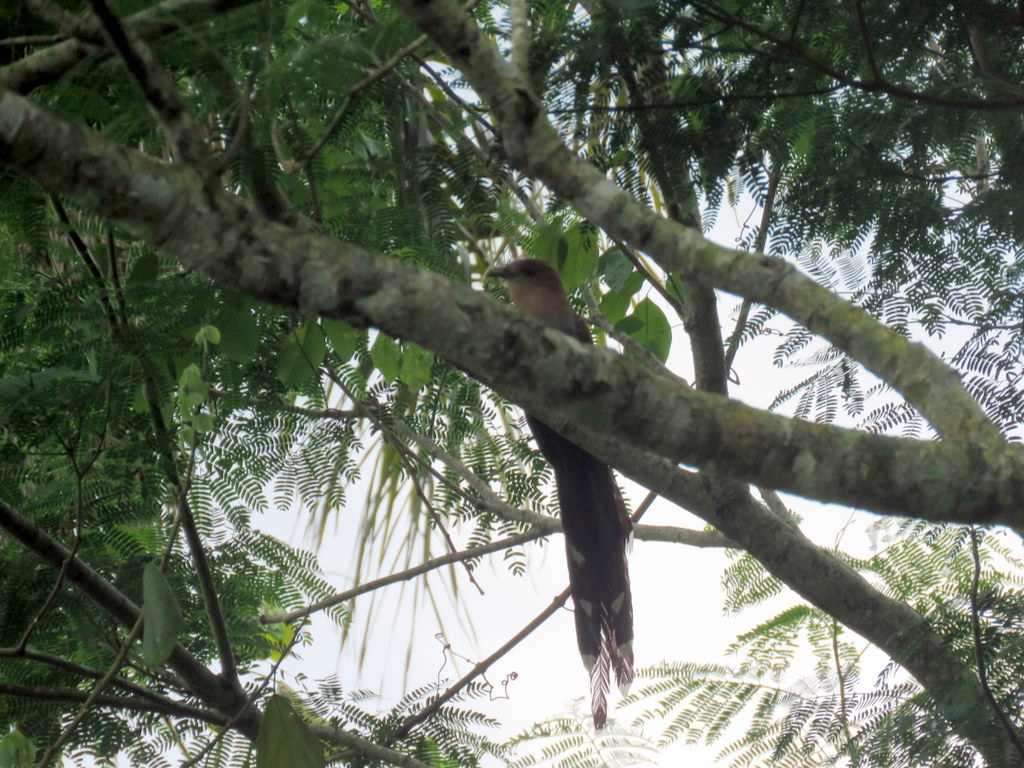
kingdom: Animalia
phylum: Chordata
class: Aves
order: Cuculiformes
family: Cuculidae
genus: Piaya
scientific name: Piaya cayana
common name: Squirrel cuckoo
